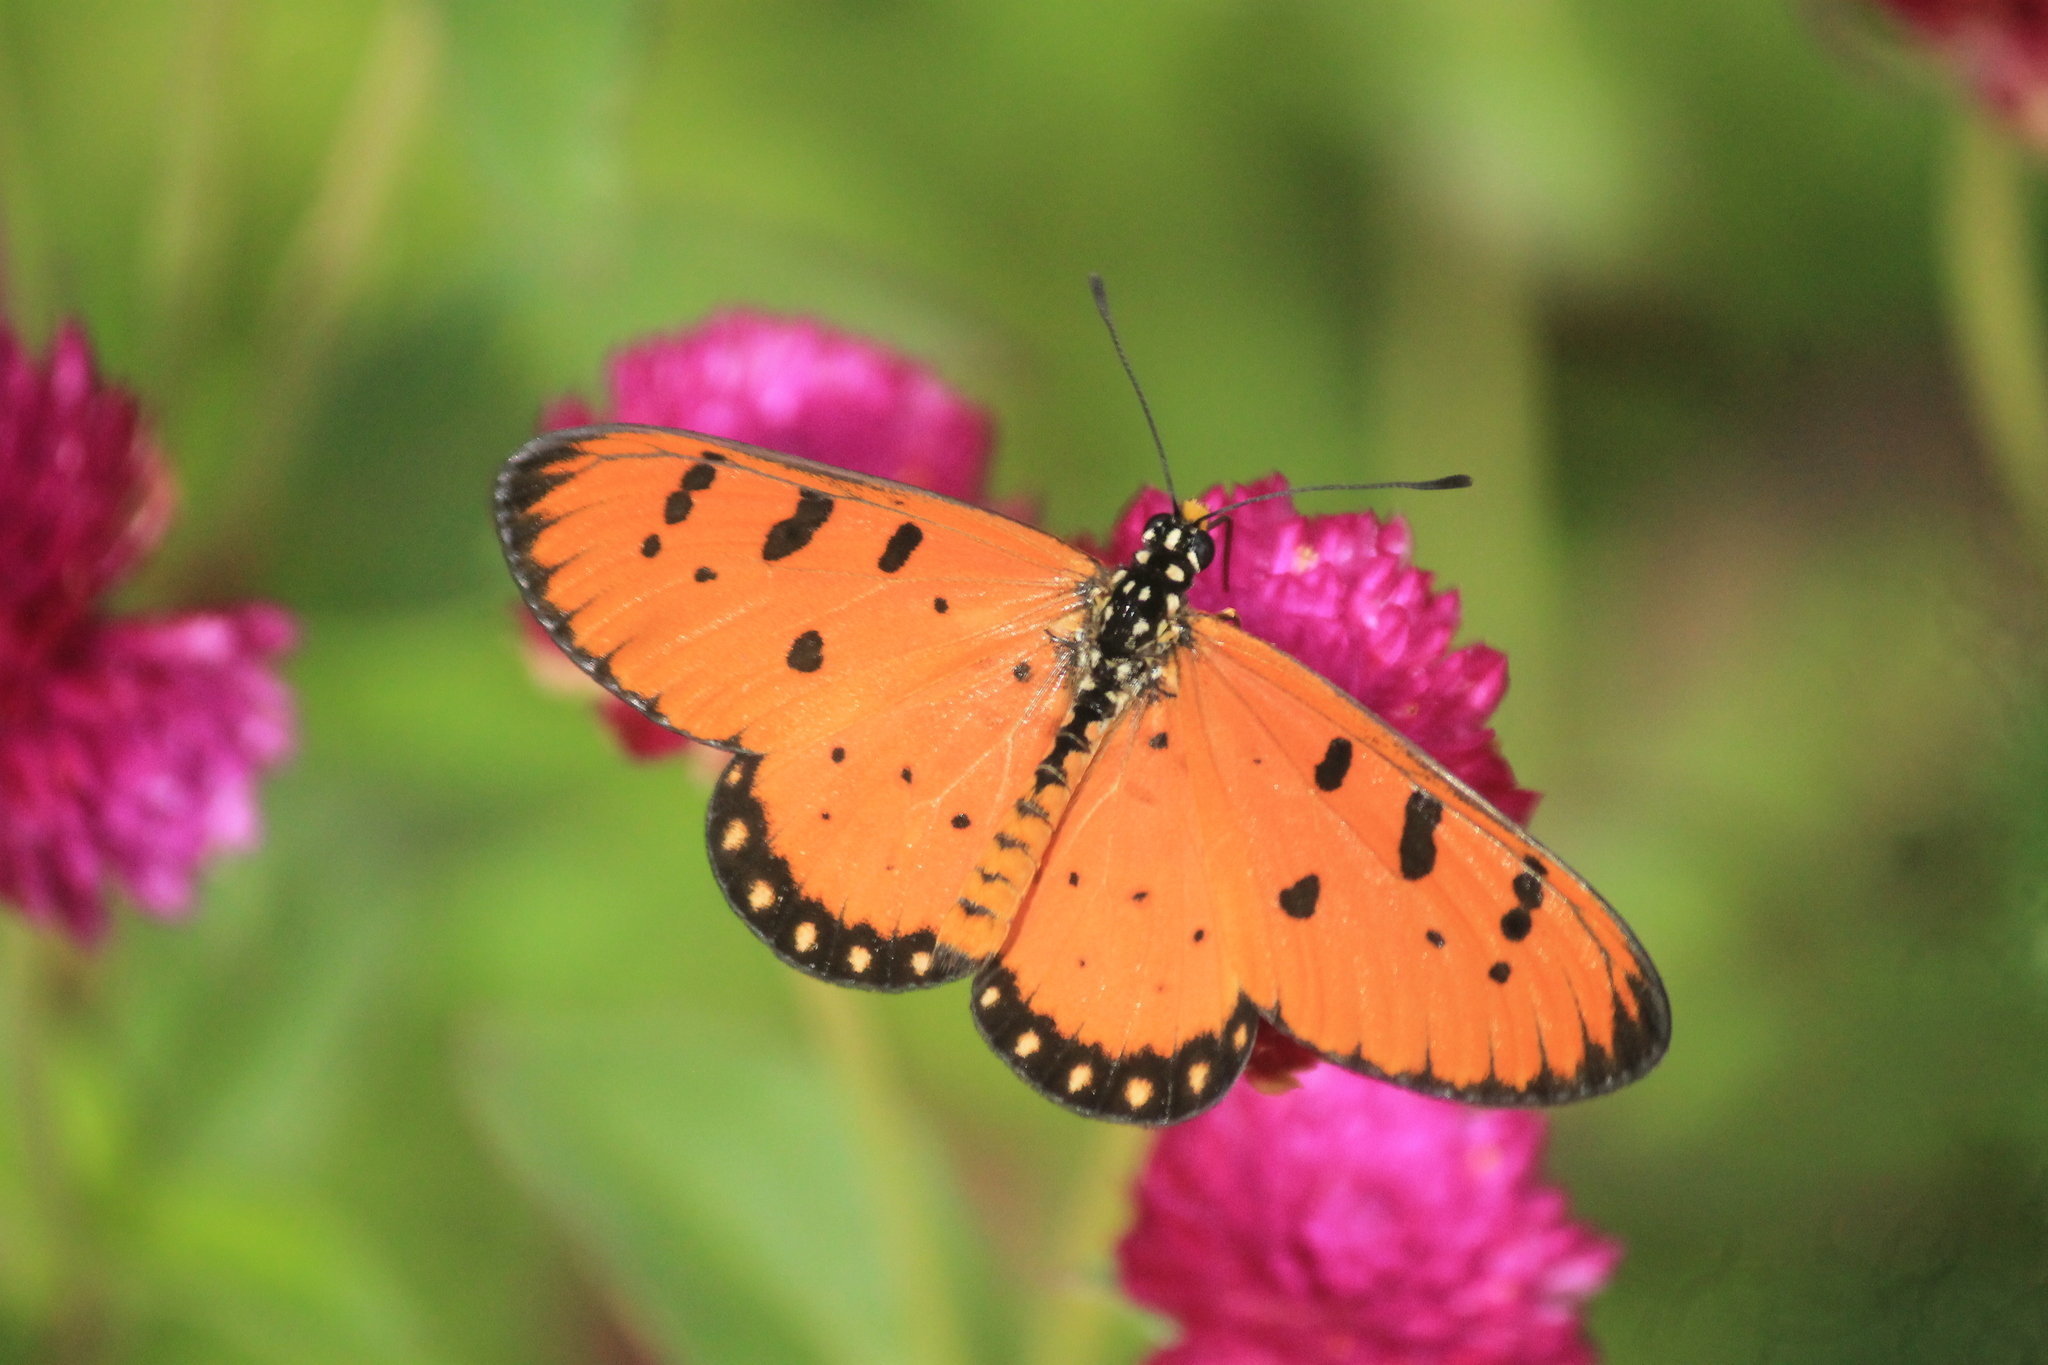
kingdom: Animalia
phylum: Arthropoda
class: Insecta
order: Lepidoptera
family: Nymphalidae
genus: Acraea
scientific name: Acraea terpsicore
